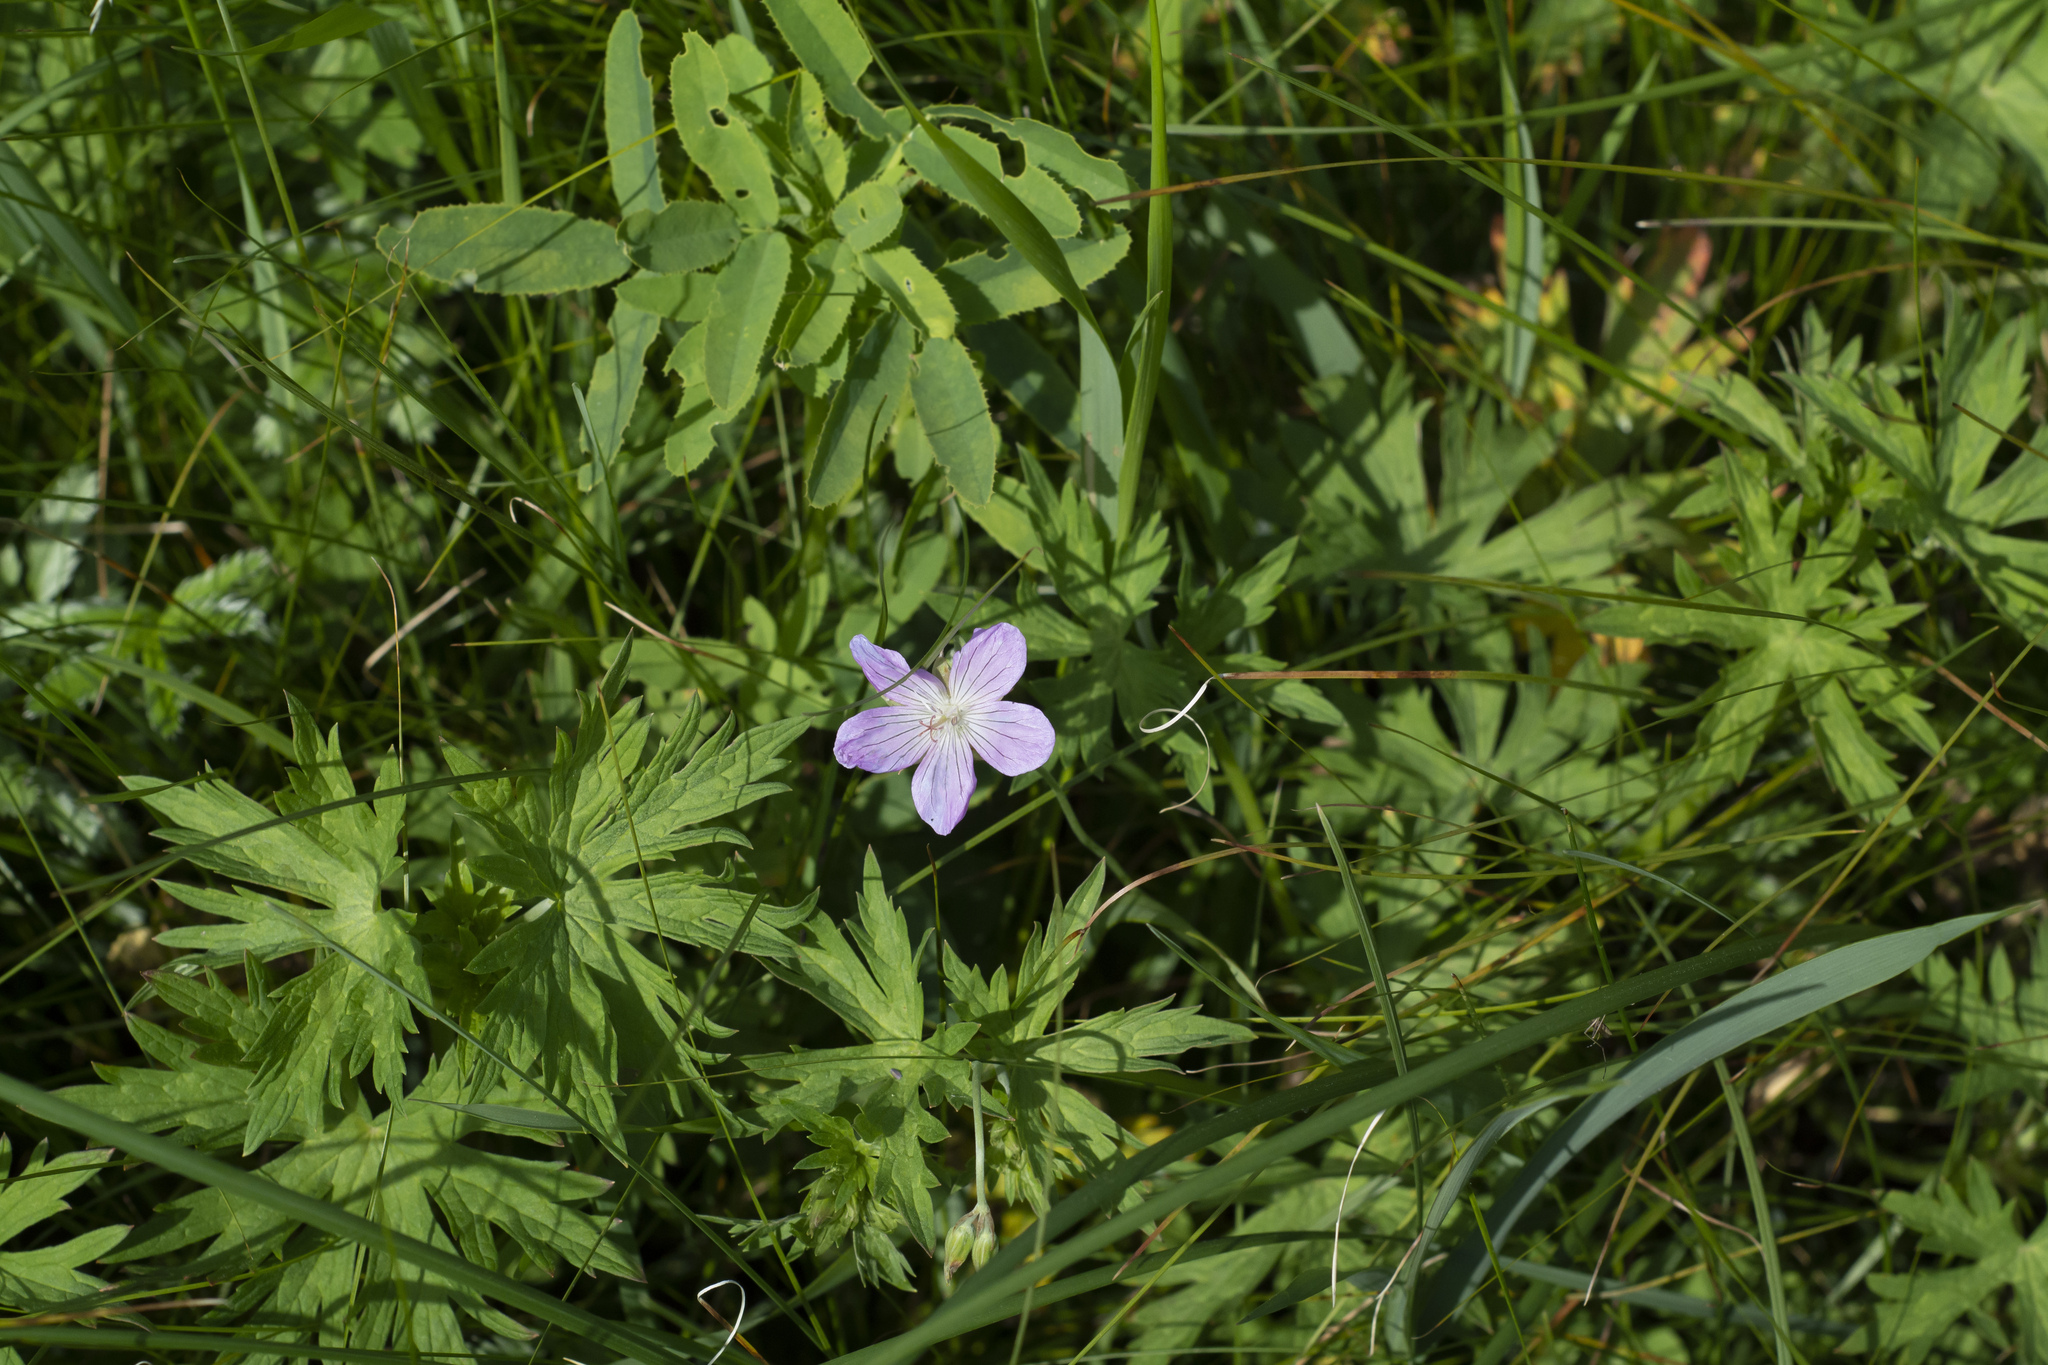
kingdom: Plantae
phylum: Tracheophyta
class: Magnoliopsida
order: Geraniales
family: Geraniaceae
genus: Geranium
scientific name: Geranium collinum
